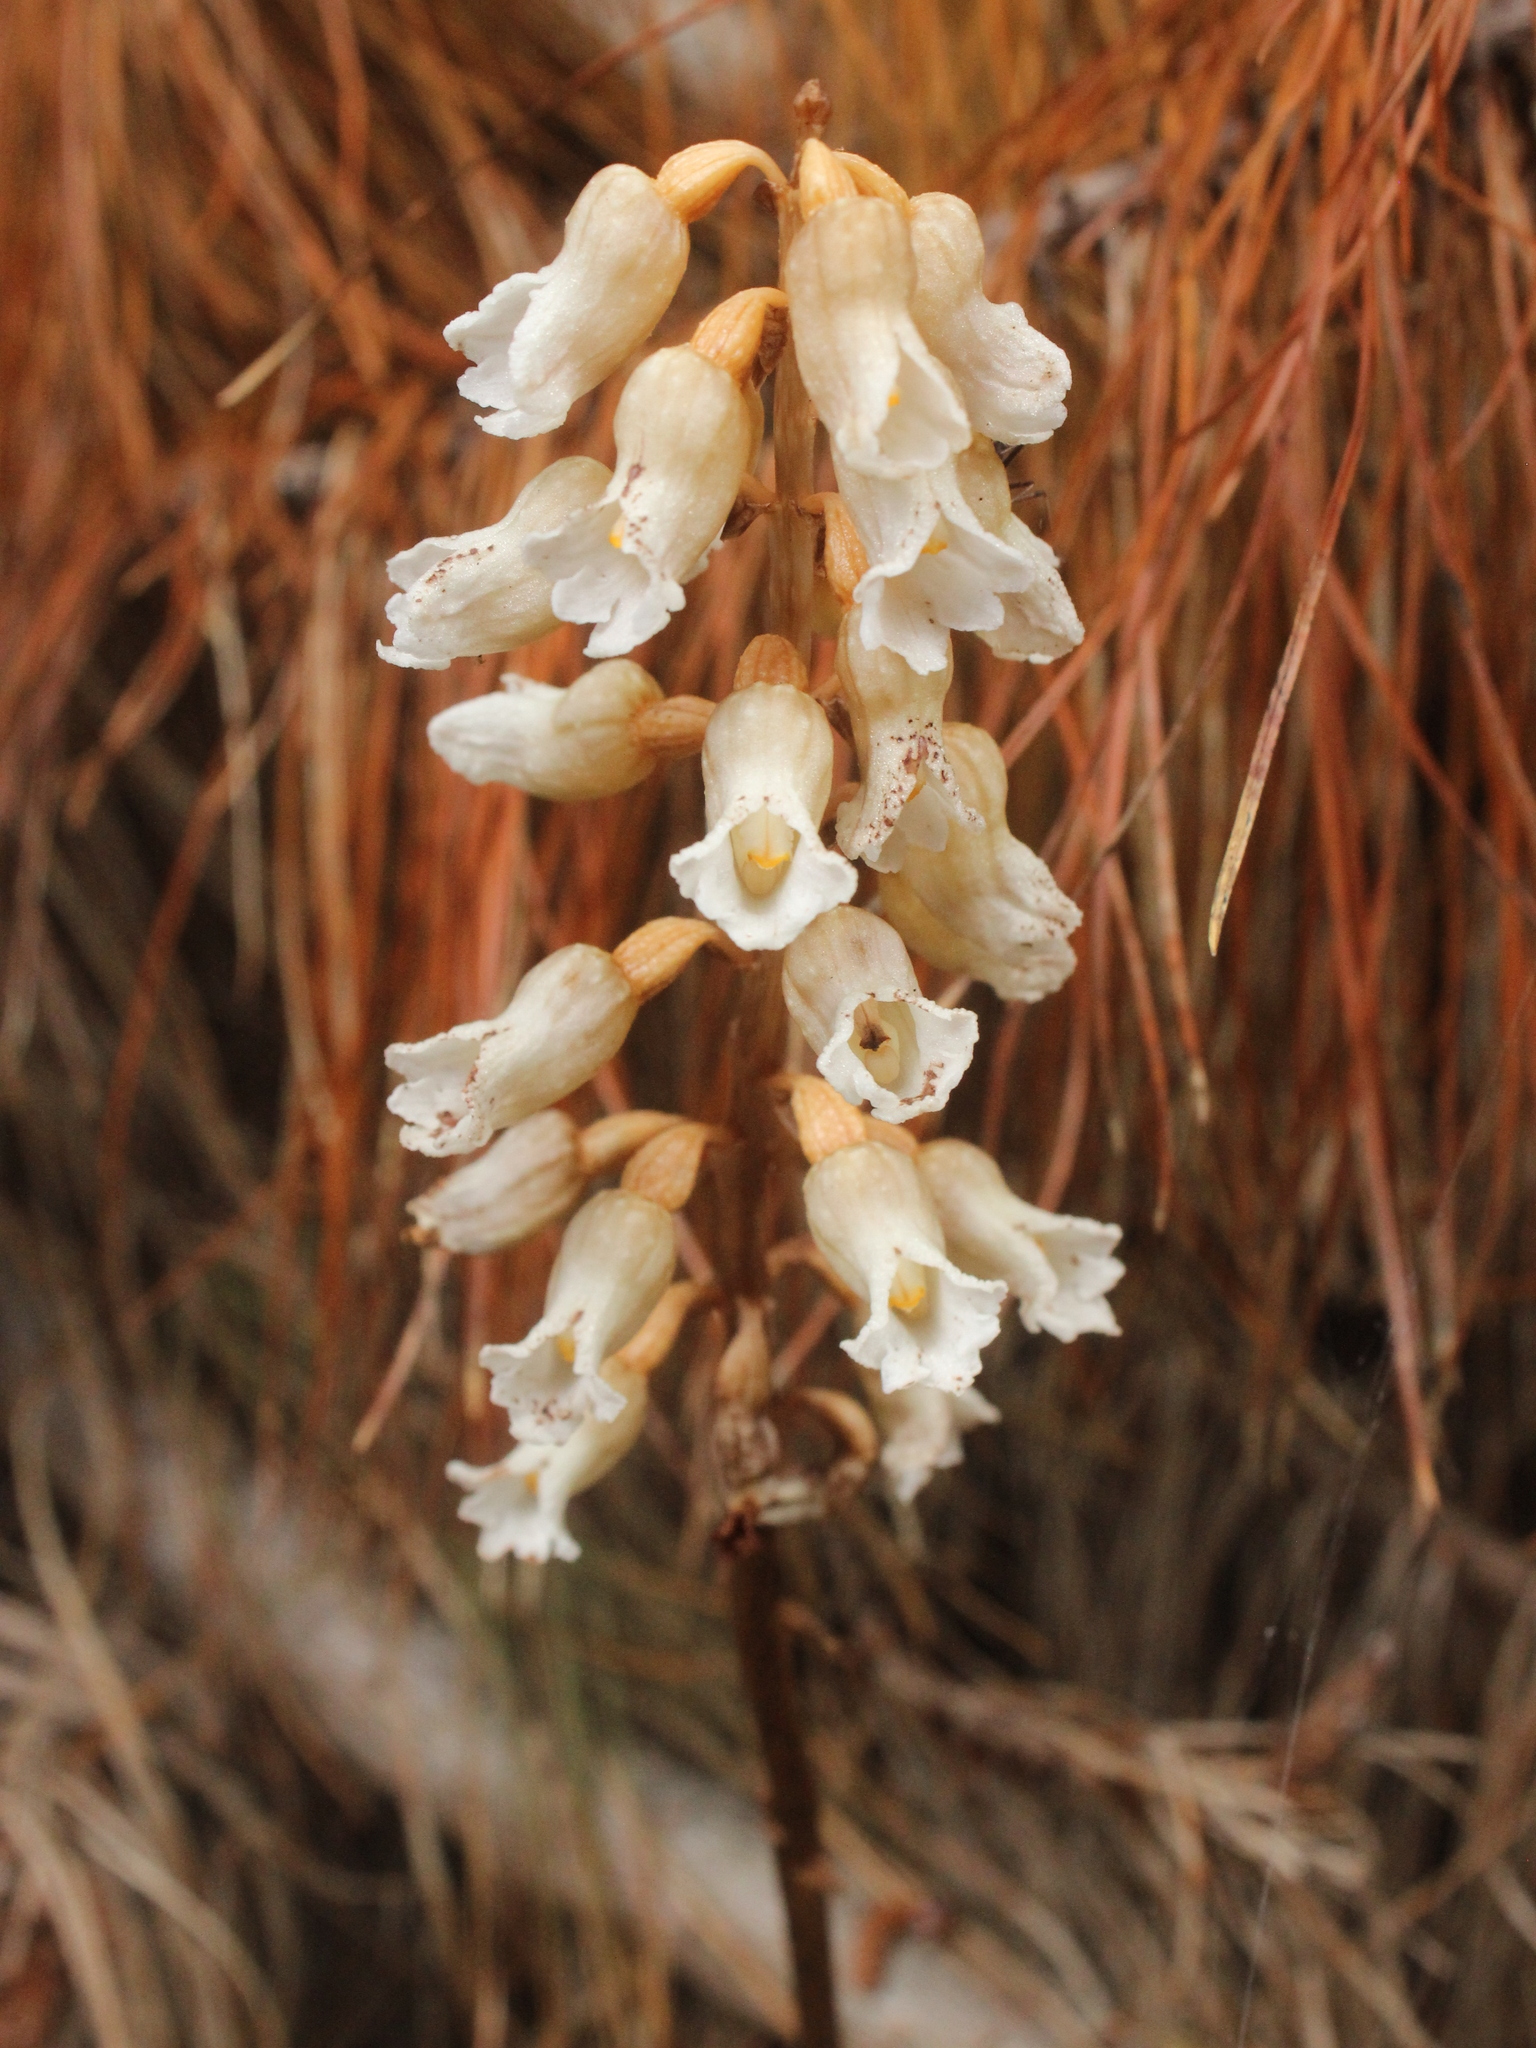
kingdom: Plantae
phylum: Tracheophyta
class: Liliopsida
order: Asparagales
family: Orchidaceae
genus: Gastrodia
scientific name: Gastrodia sesamoides
